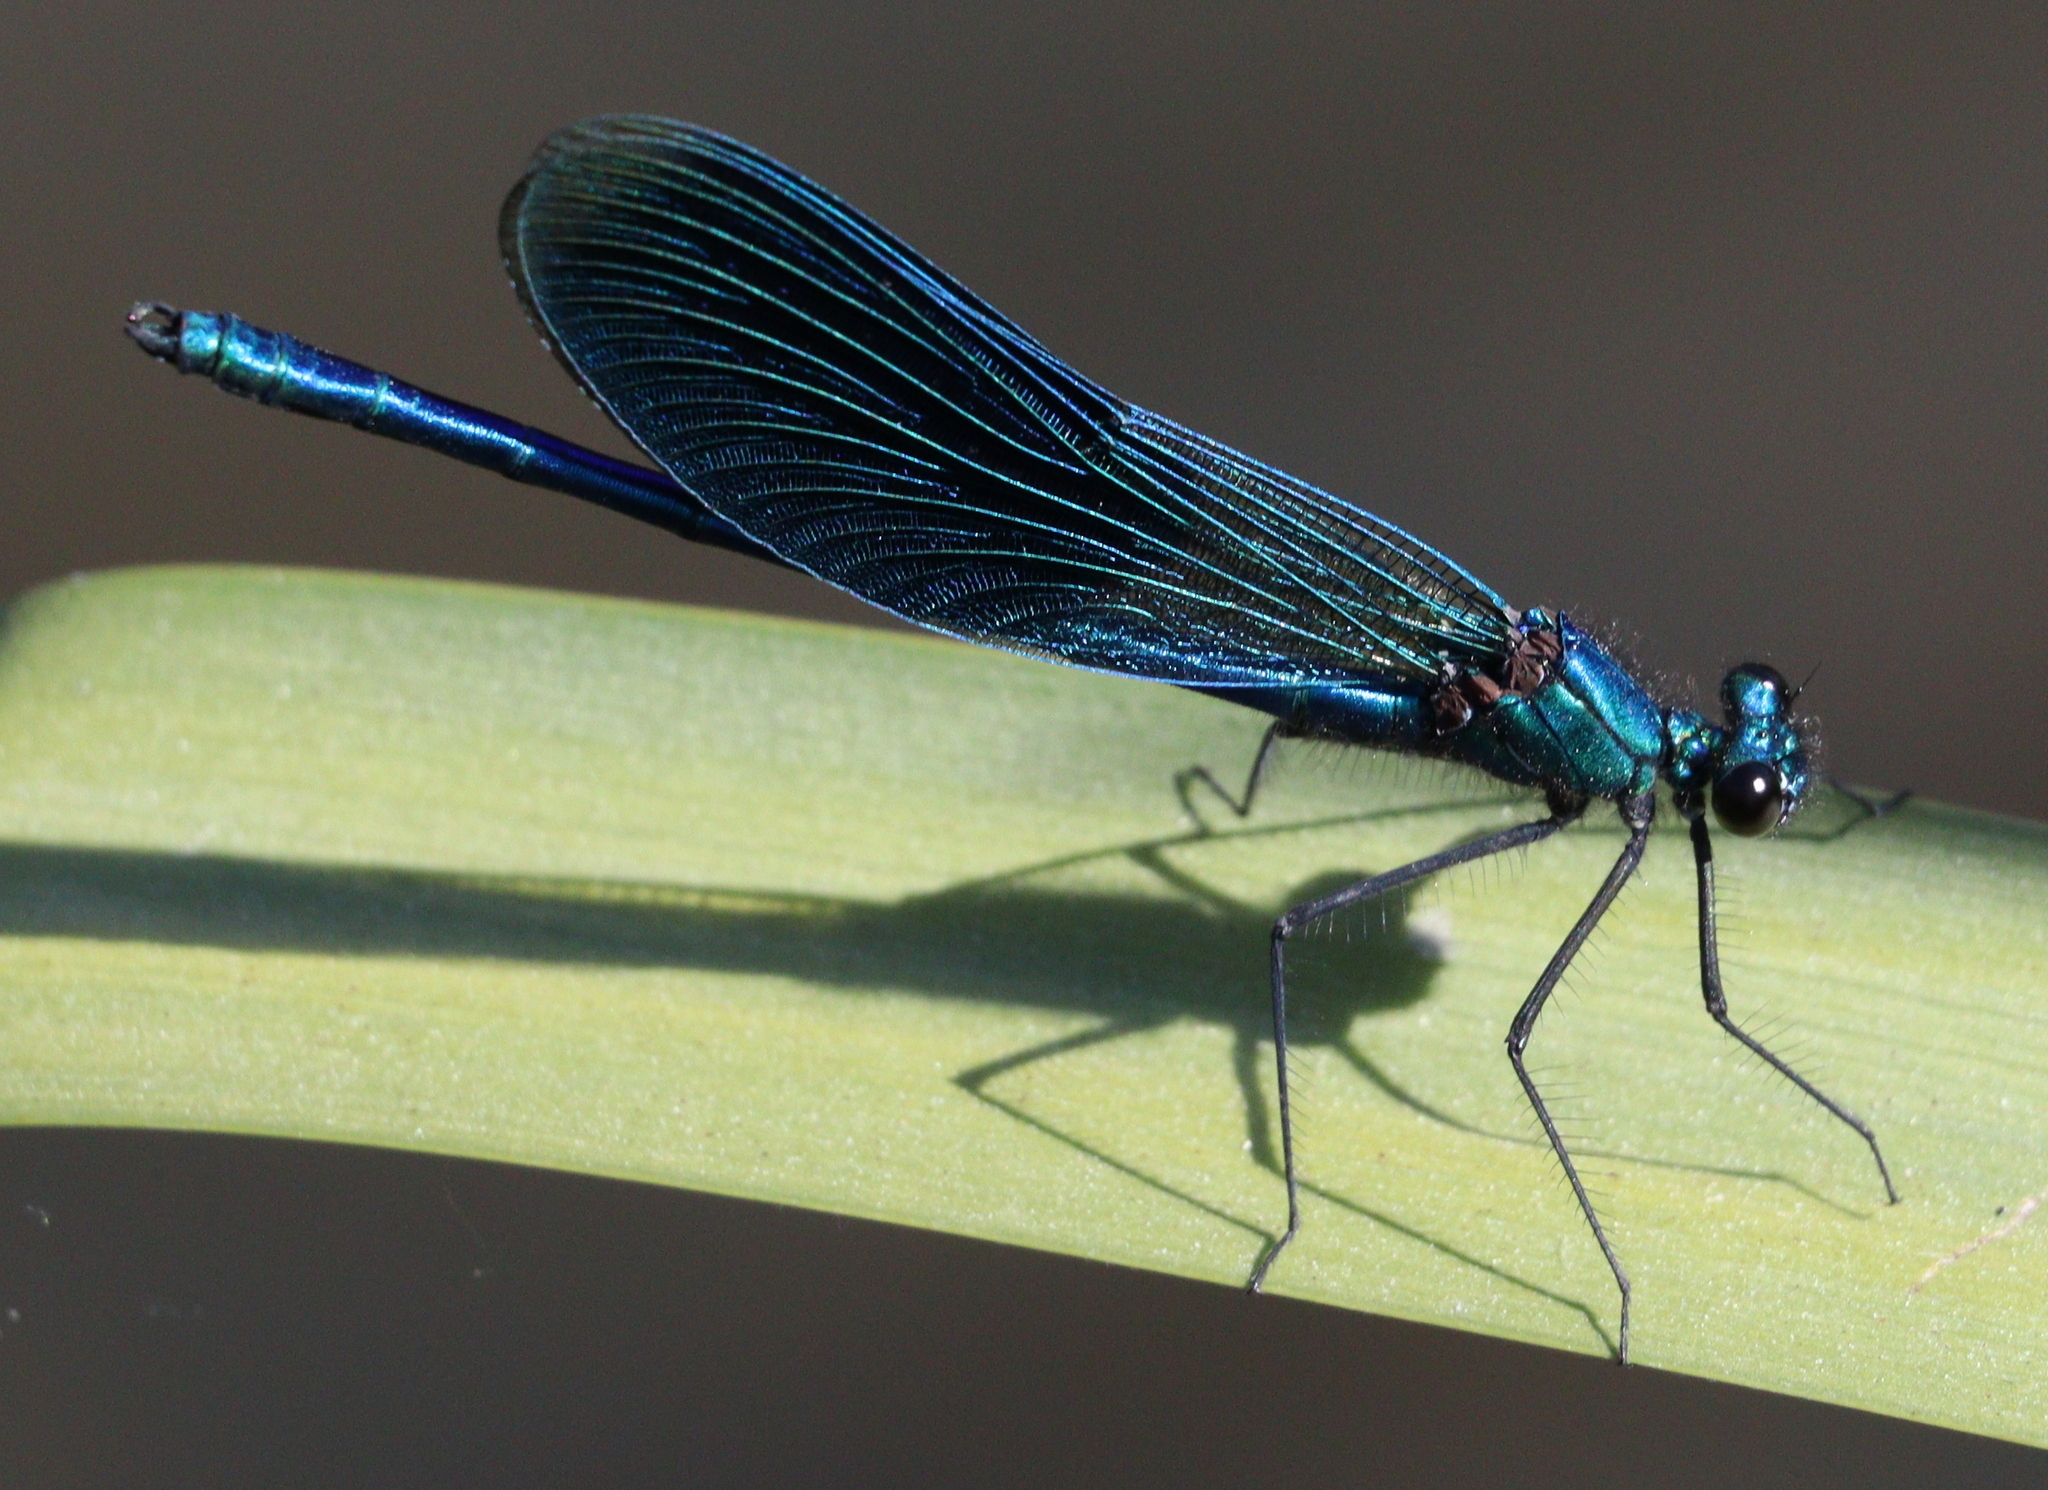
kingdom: Animalia
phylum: Arthropoda
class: Insecta
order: Odonata
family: Calopterygidae
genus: Calopteryx
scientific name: Calopteryx splendens
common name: Banded demoiselle
